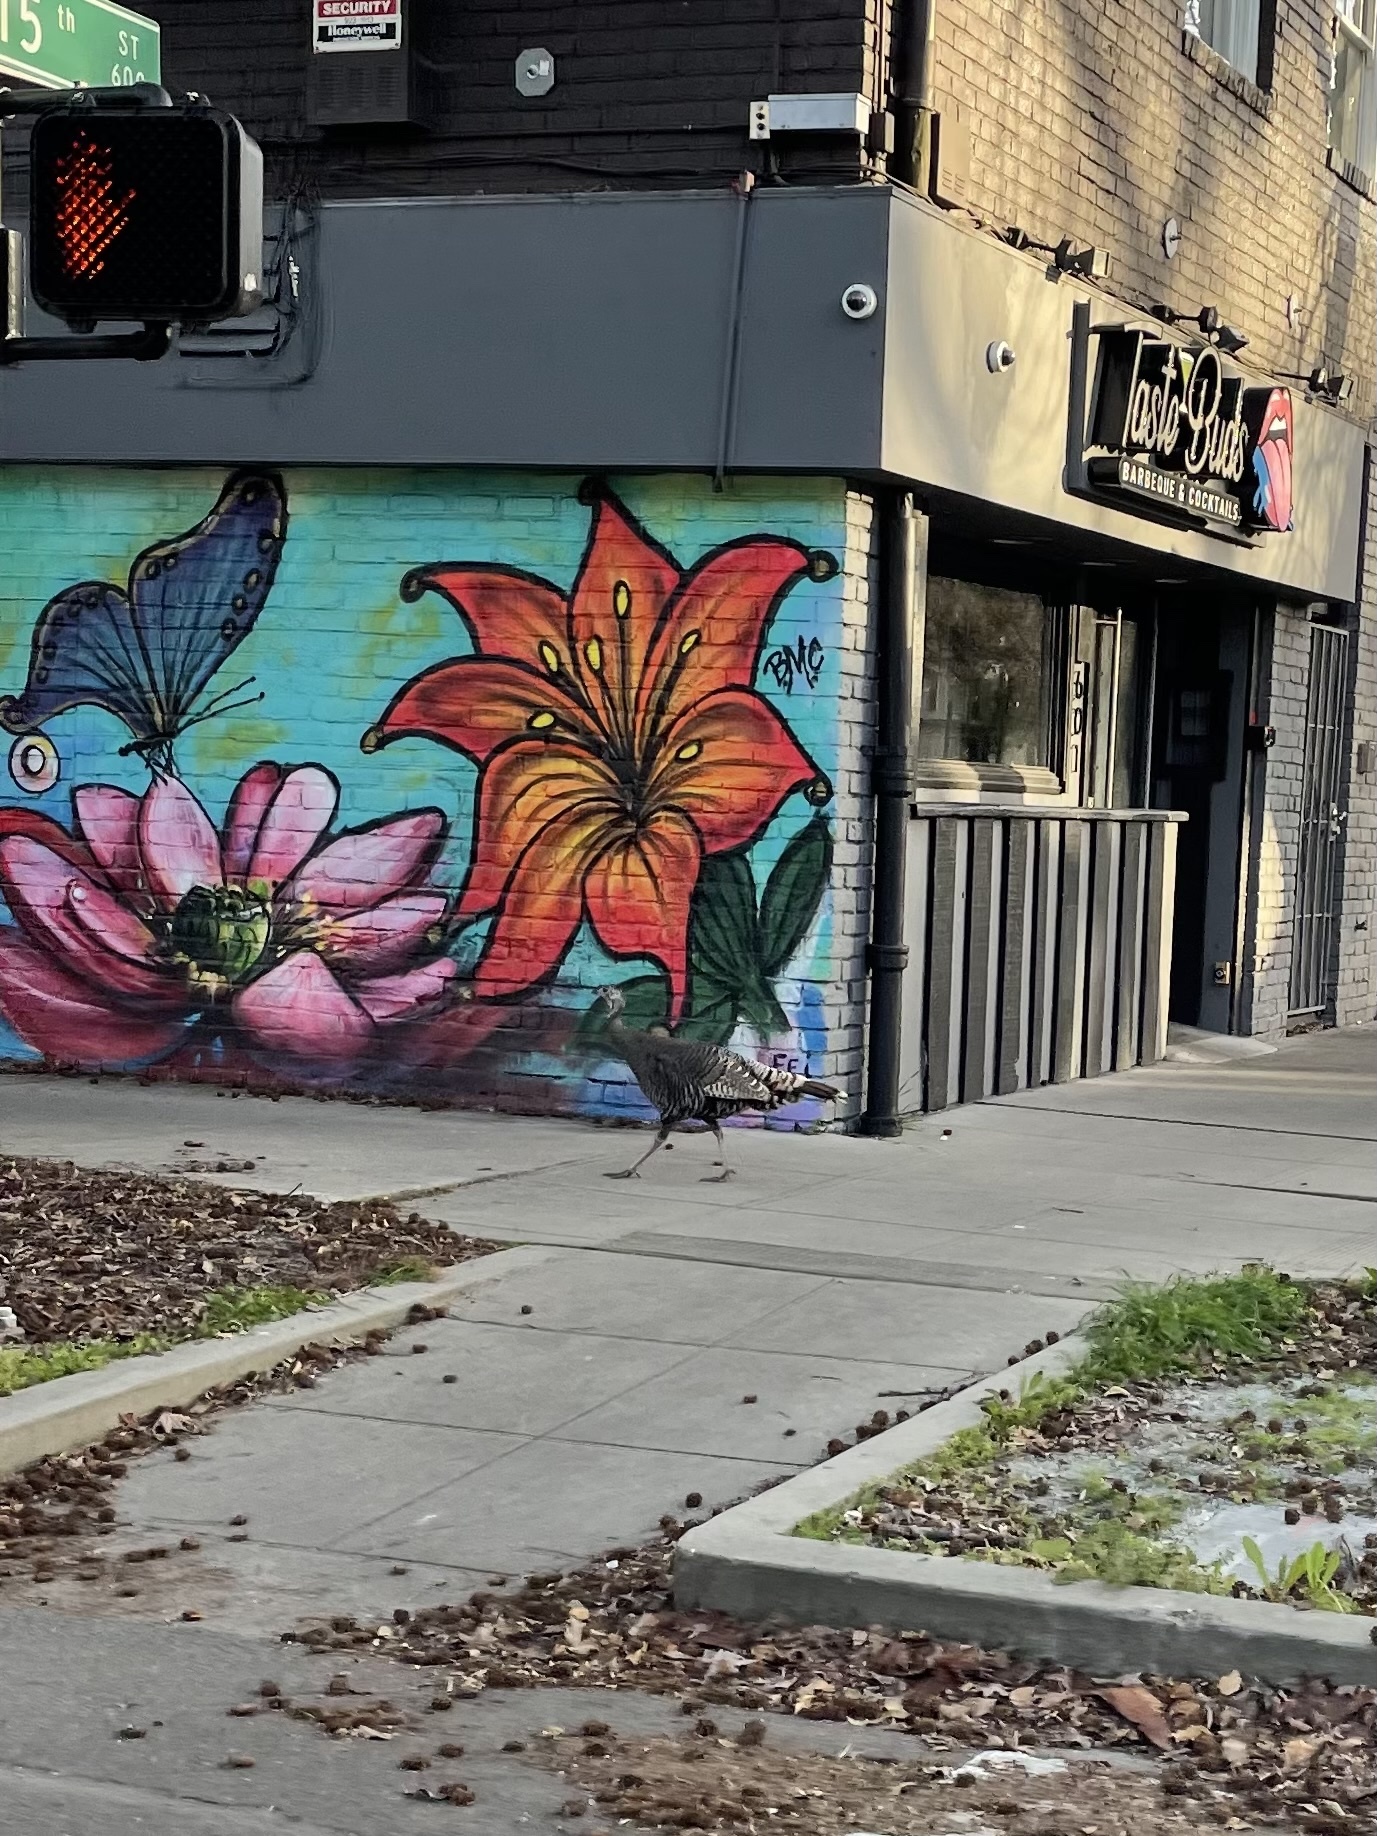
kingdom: Animalia
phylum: Chordata
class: Aves
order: Galliformes
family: Phasianidae
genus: Meleagris
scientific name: Meleagris gallopavo
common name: Wild turkey
